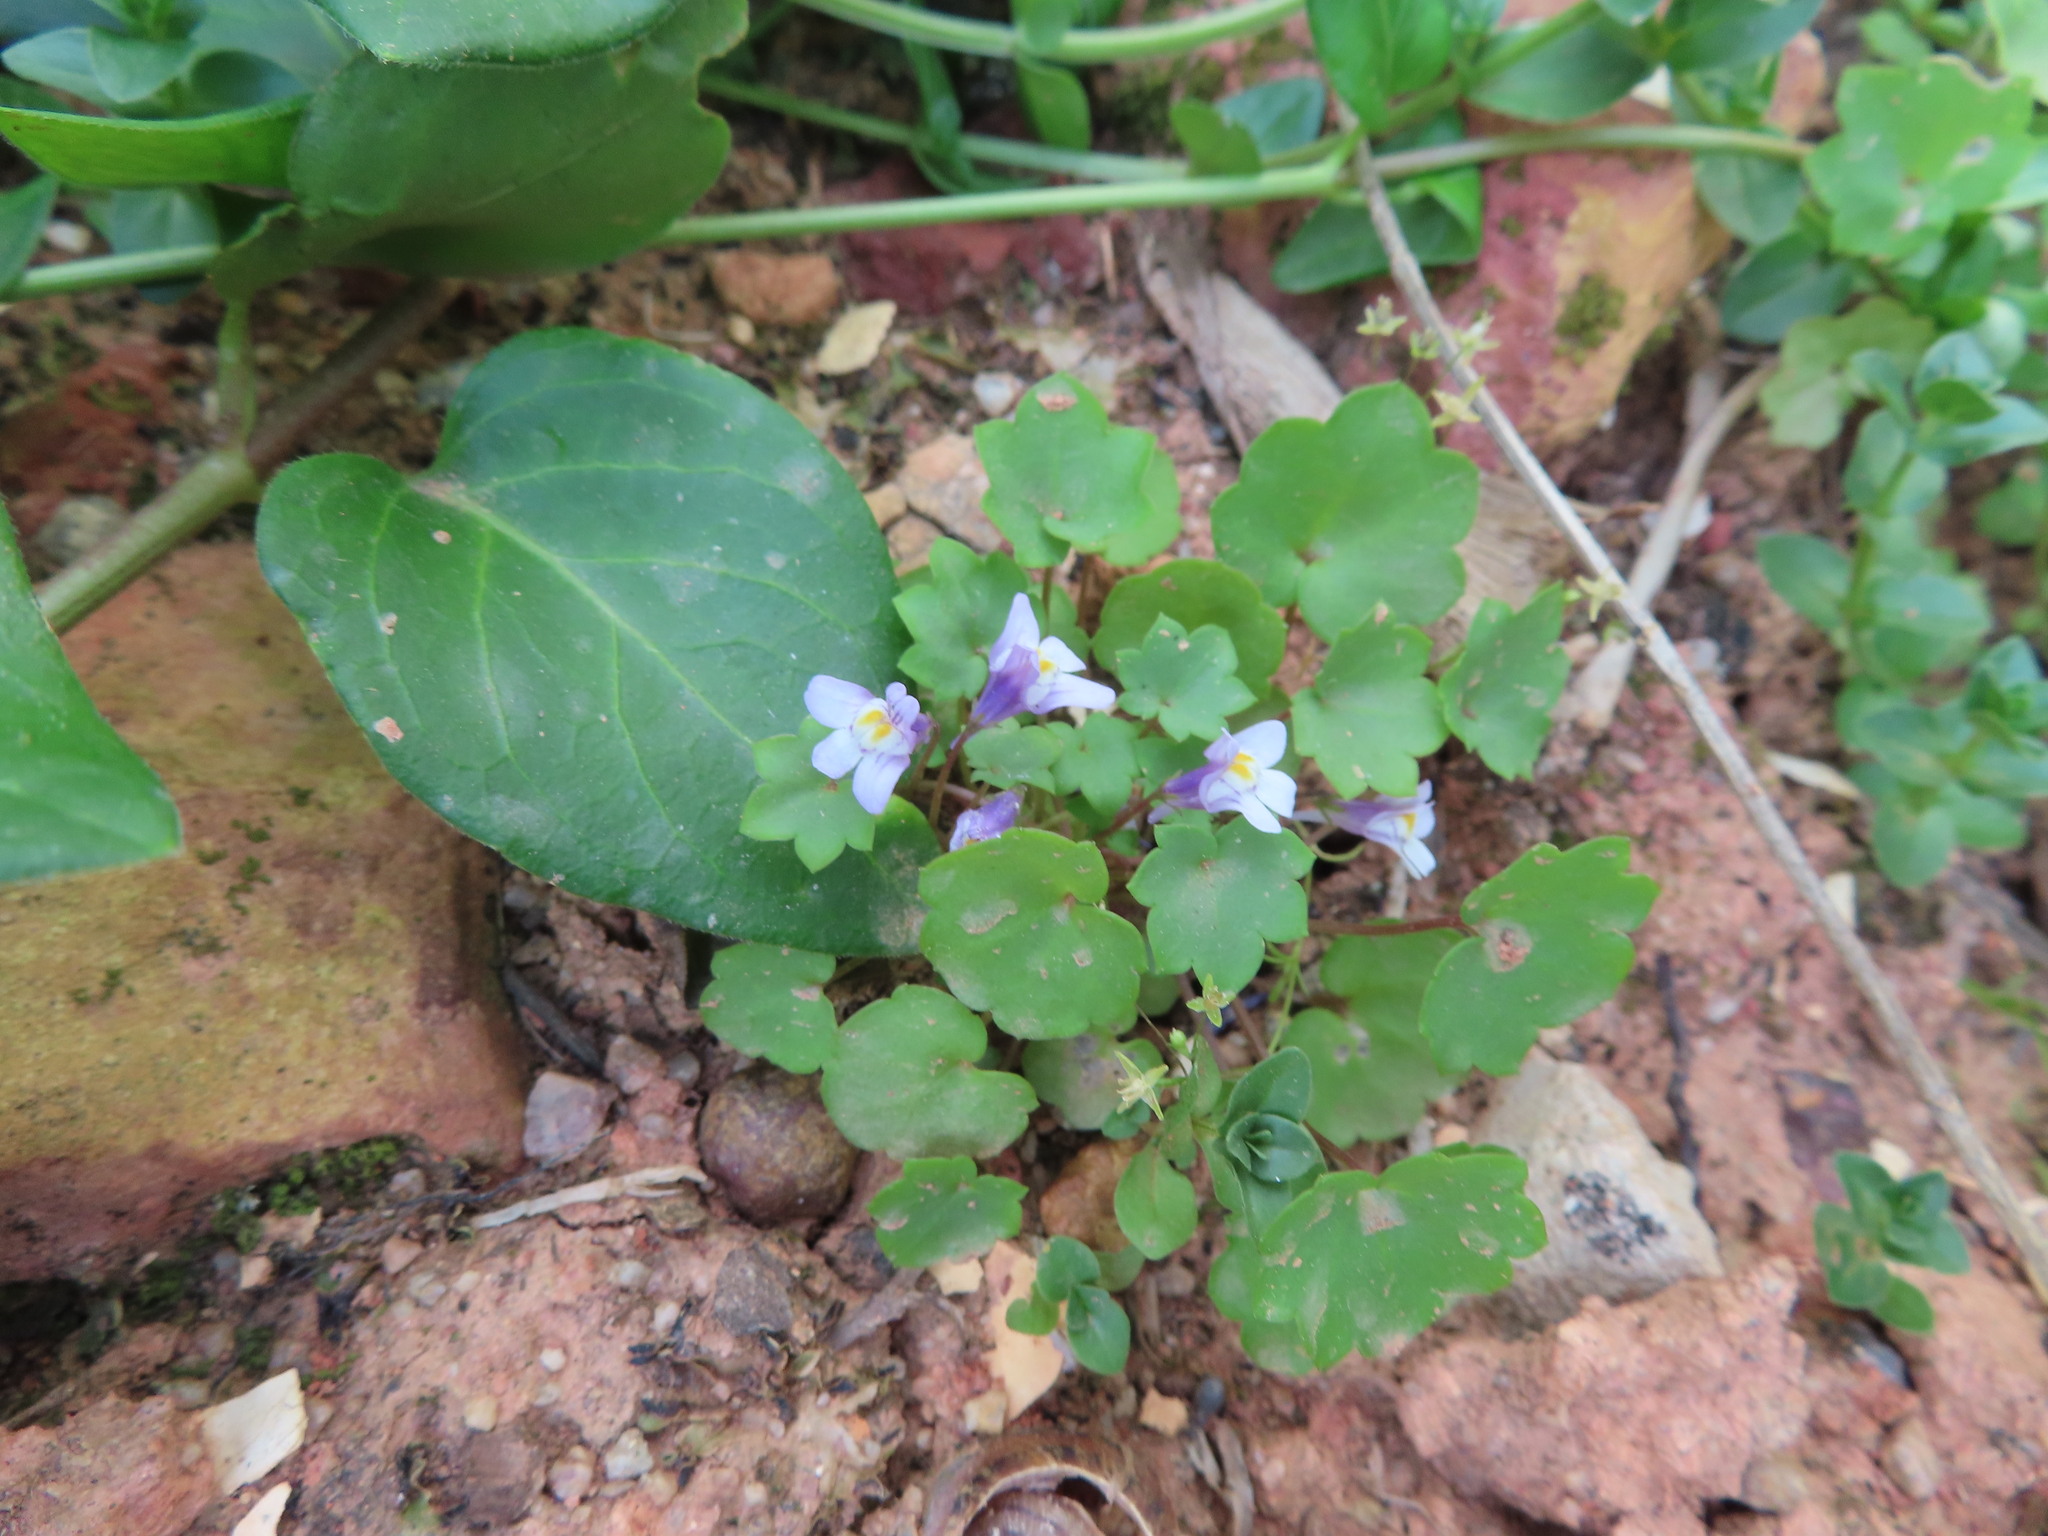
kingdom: Plantae
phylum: Tracheophyta
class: Magnoliopsida
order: Lamiales
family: Plantaginaceae
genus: Cymbalaria
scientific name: Cymbalaria muralis
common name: Ivy-leaved toadflax
